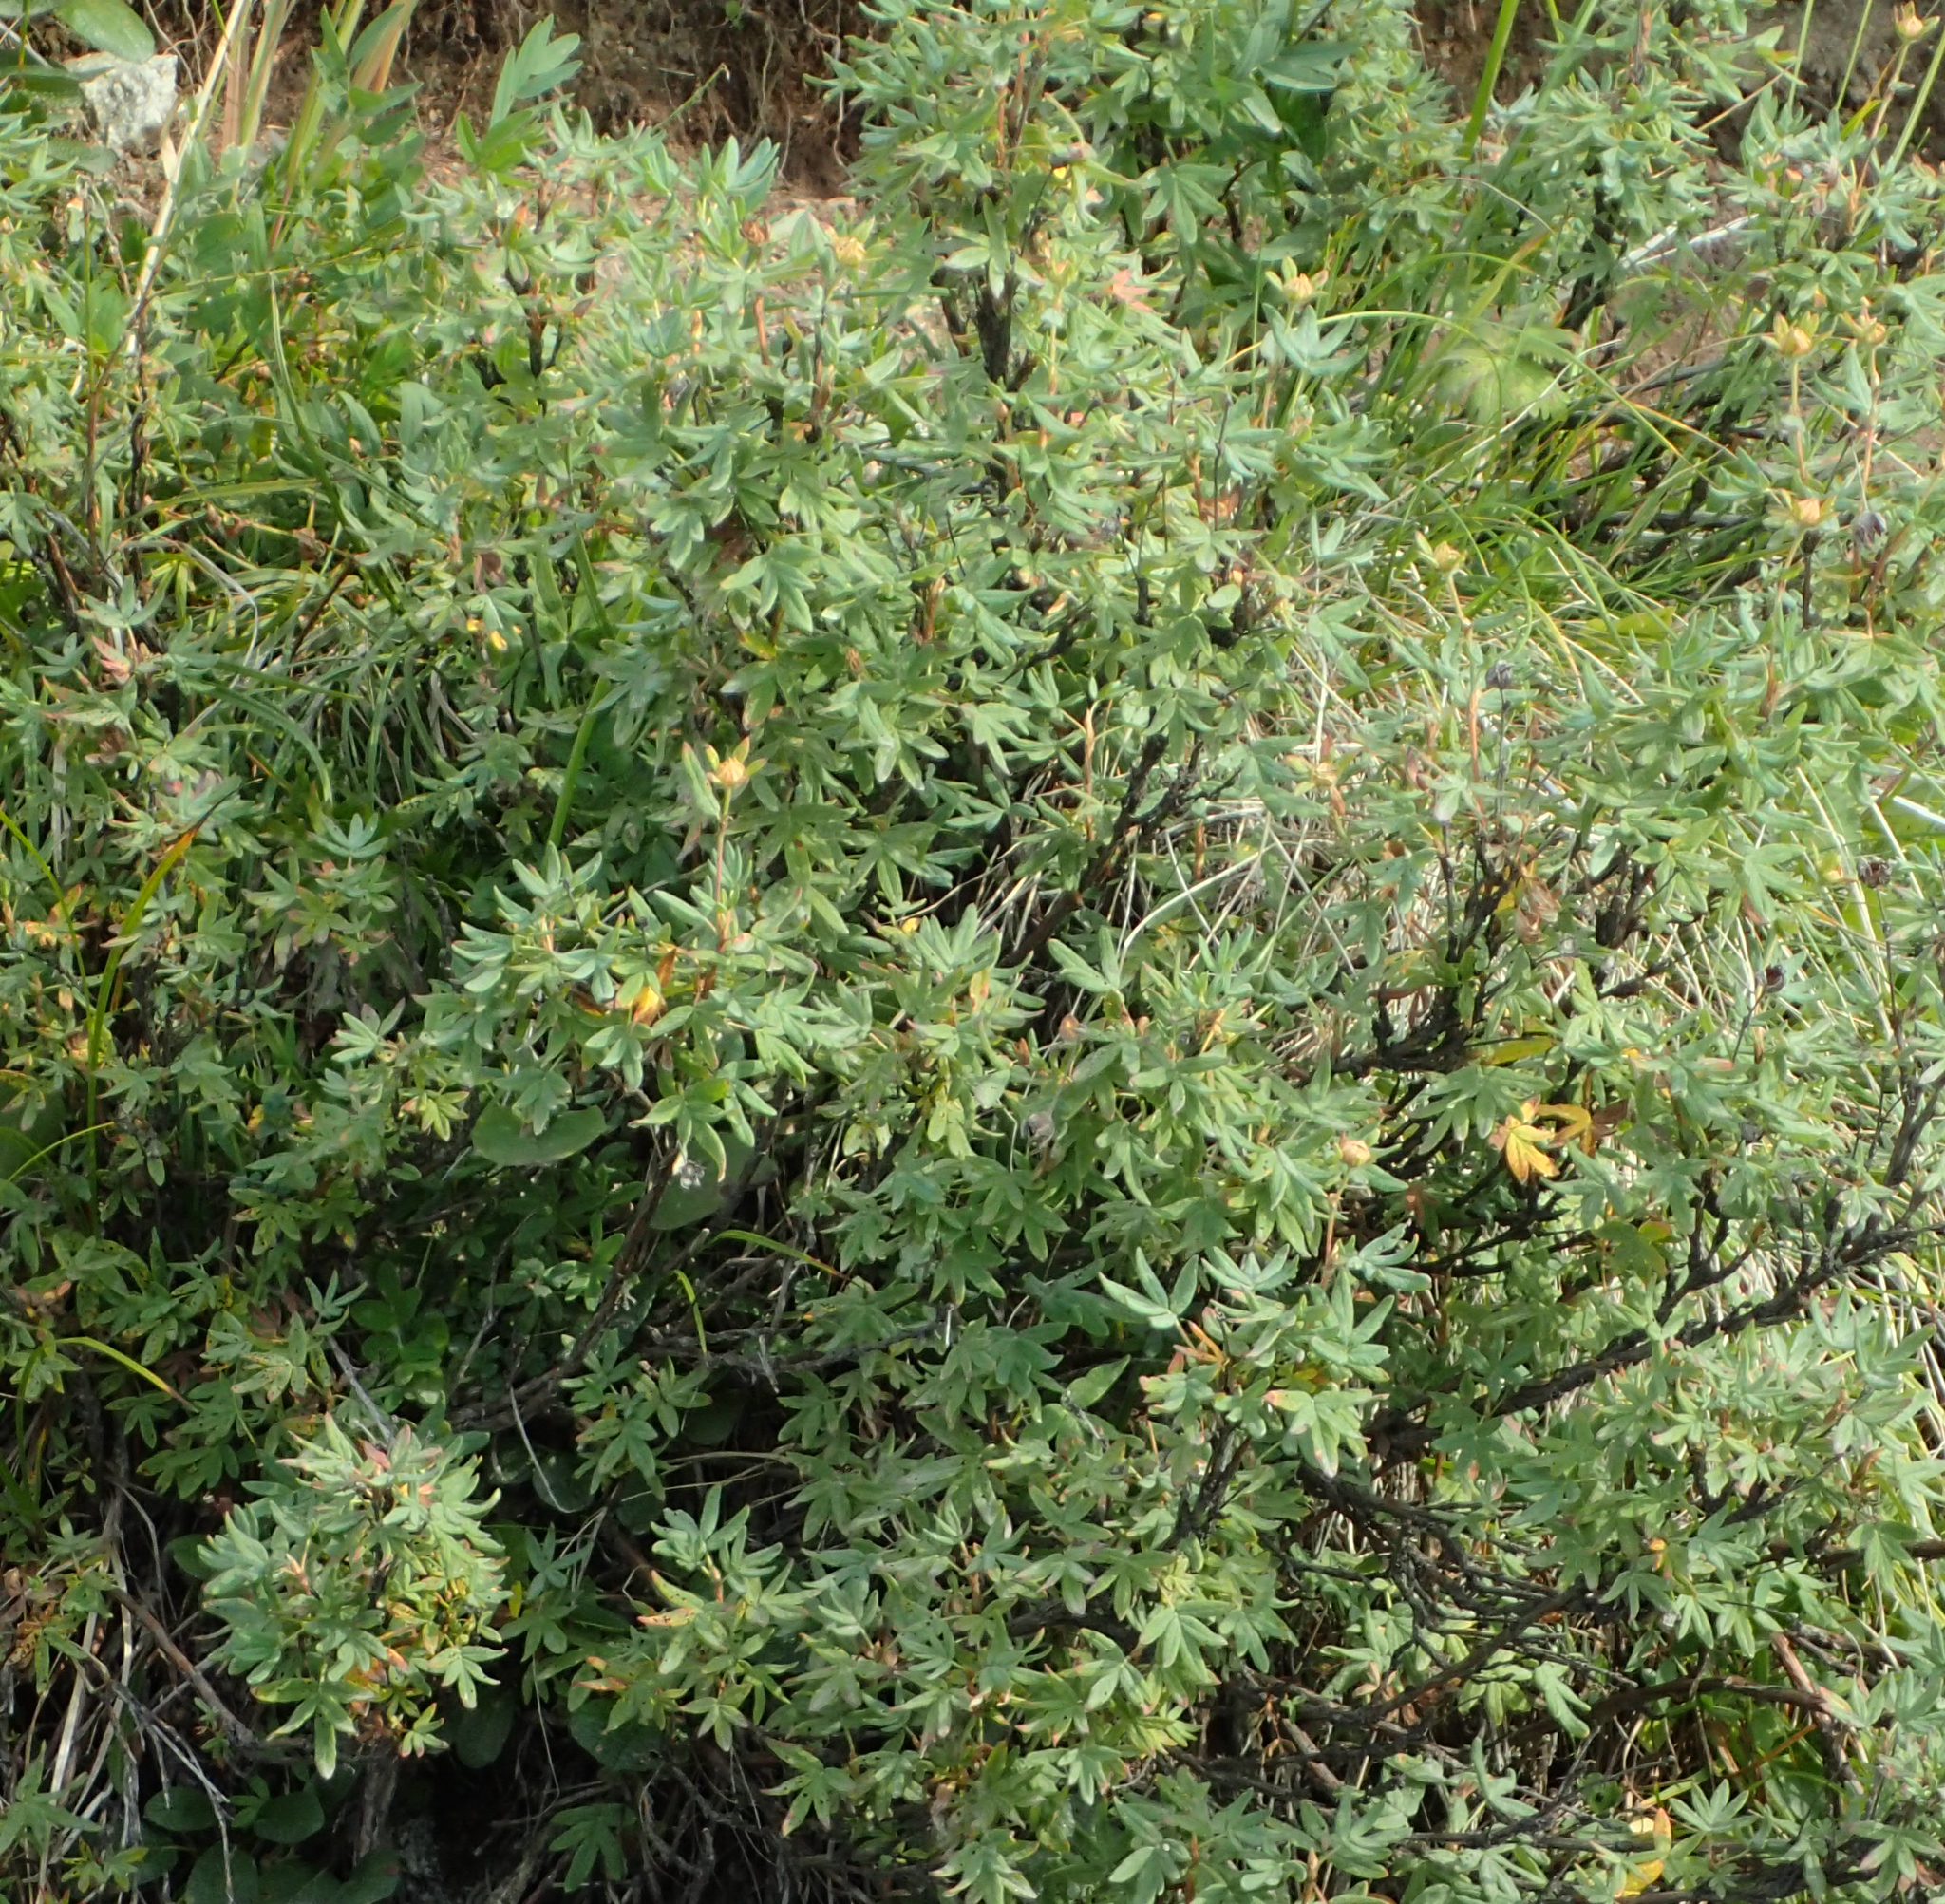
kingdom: Plantae
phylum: Tracheophyta
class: Magnoliopsida
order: Rosales
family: Rosaceae
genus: Dasiphora
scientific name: Dasiphora fruticosa
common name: Shrubby cinquefoil
